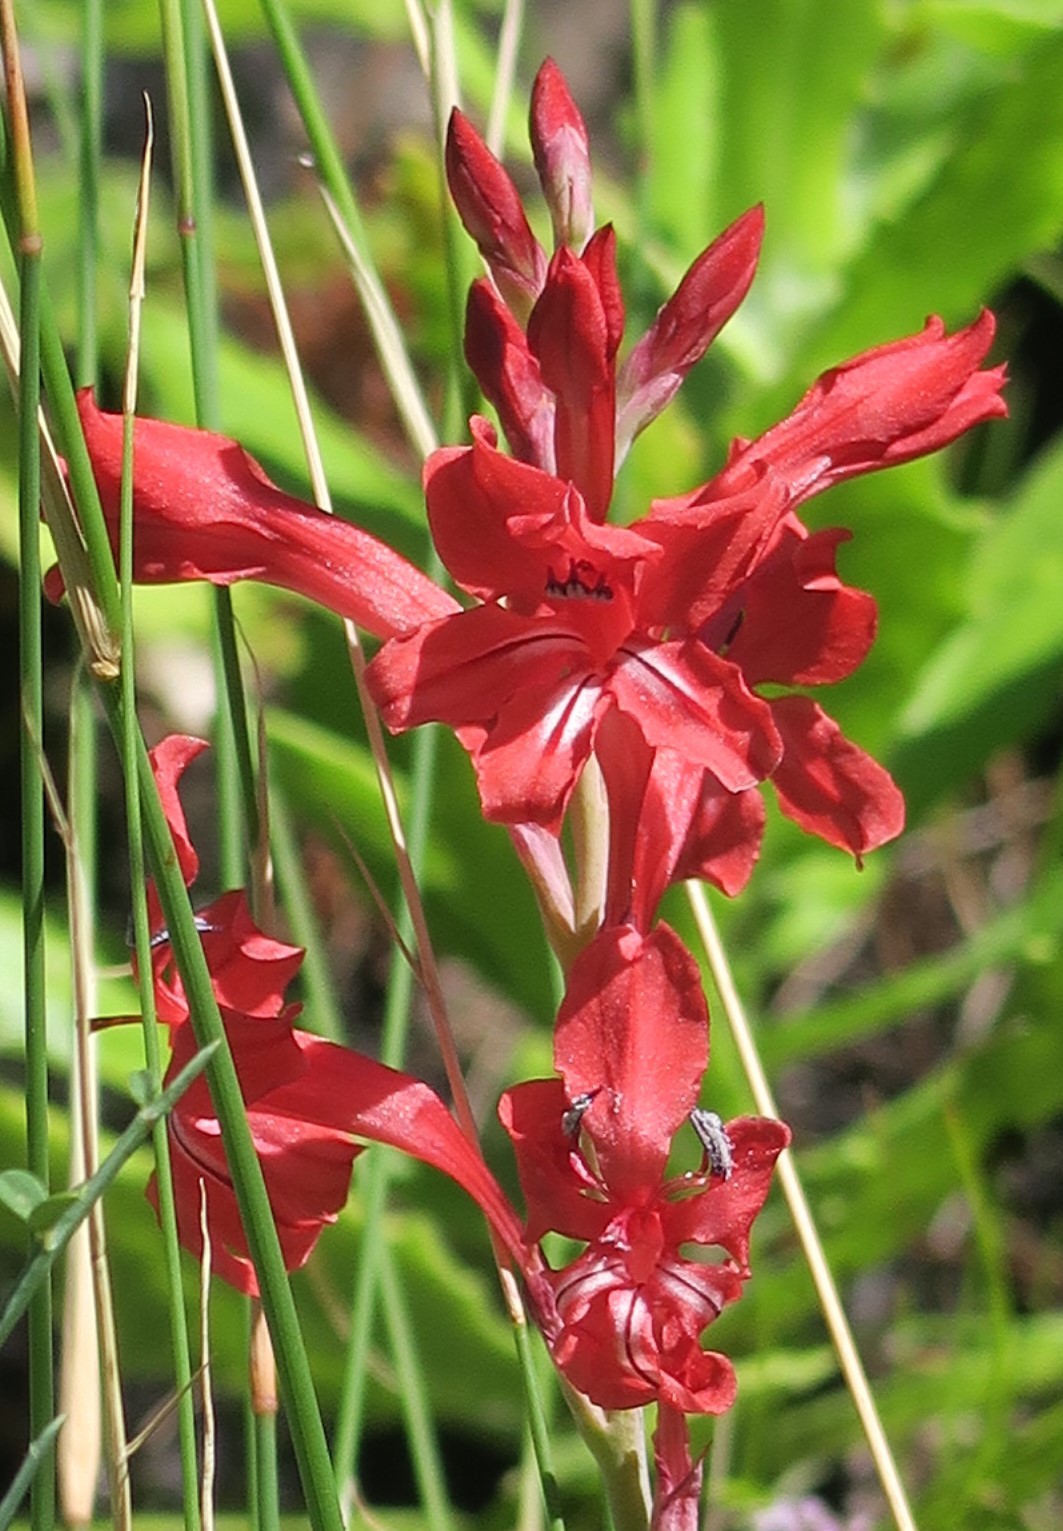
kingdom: Plantae
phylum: Tracheophyta
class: Liliopsida
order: Asparagales
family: Iridaceae
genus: Tritoniopsis
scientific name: Tritoniopsis pulchra
